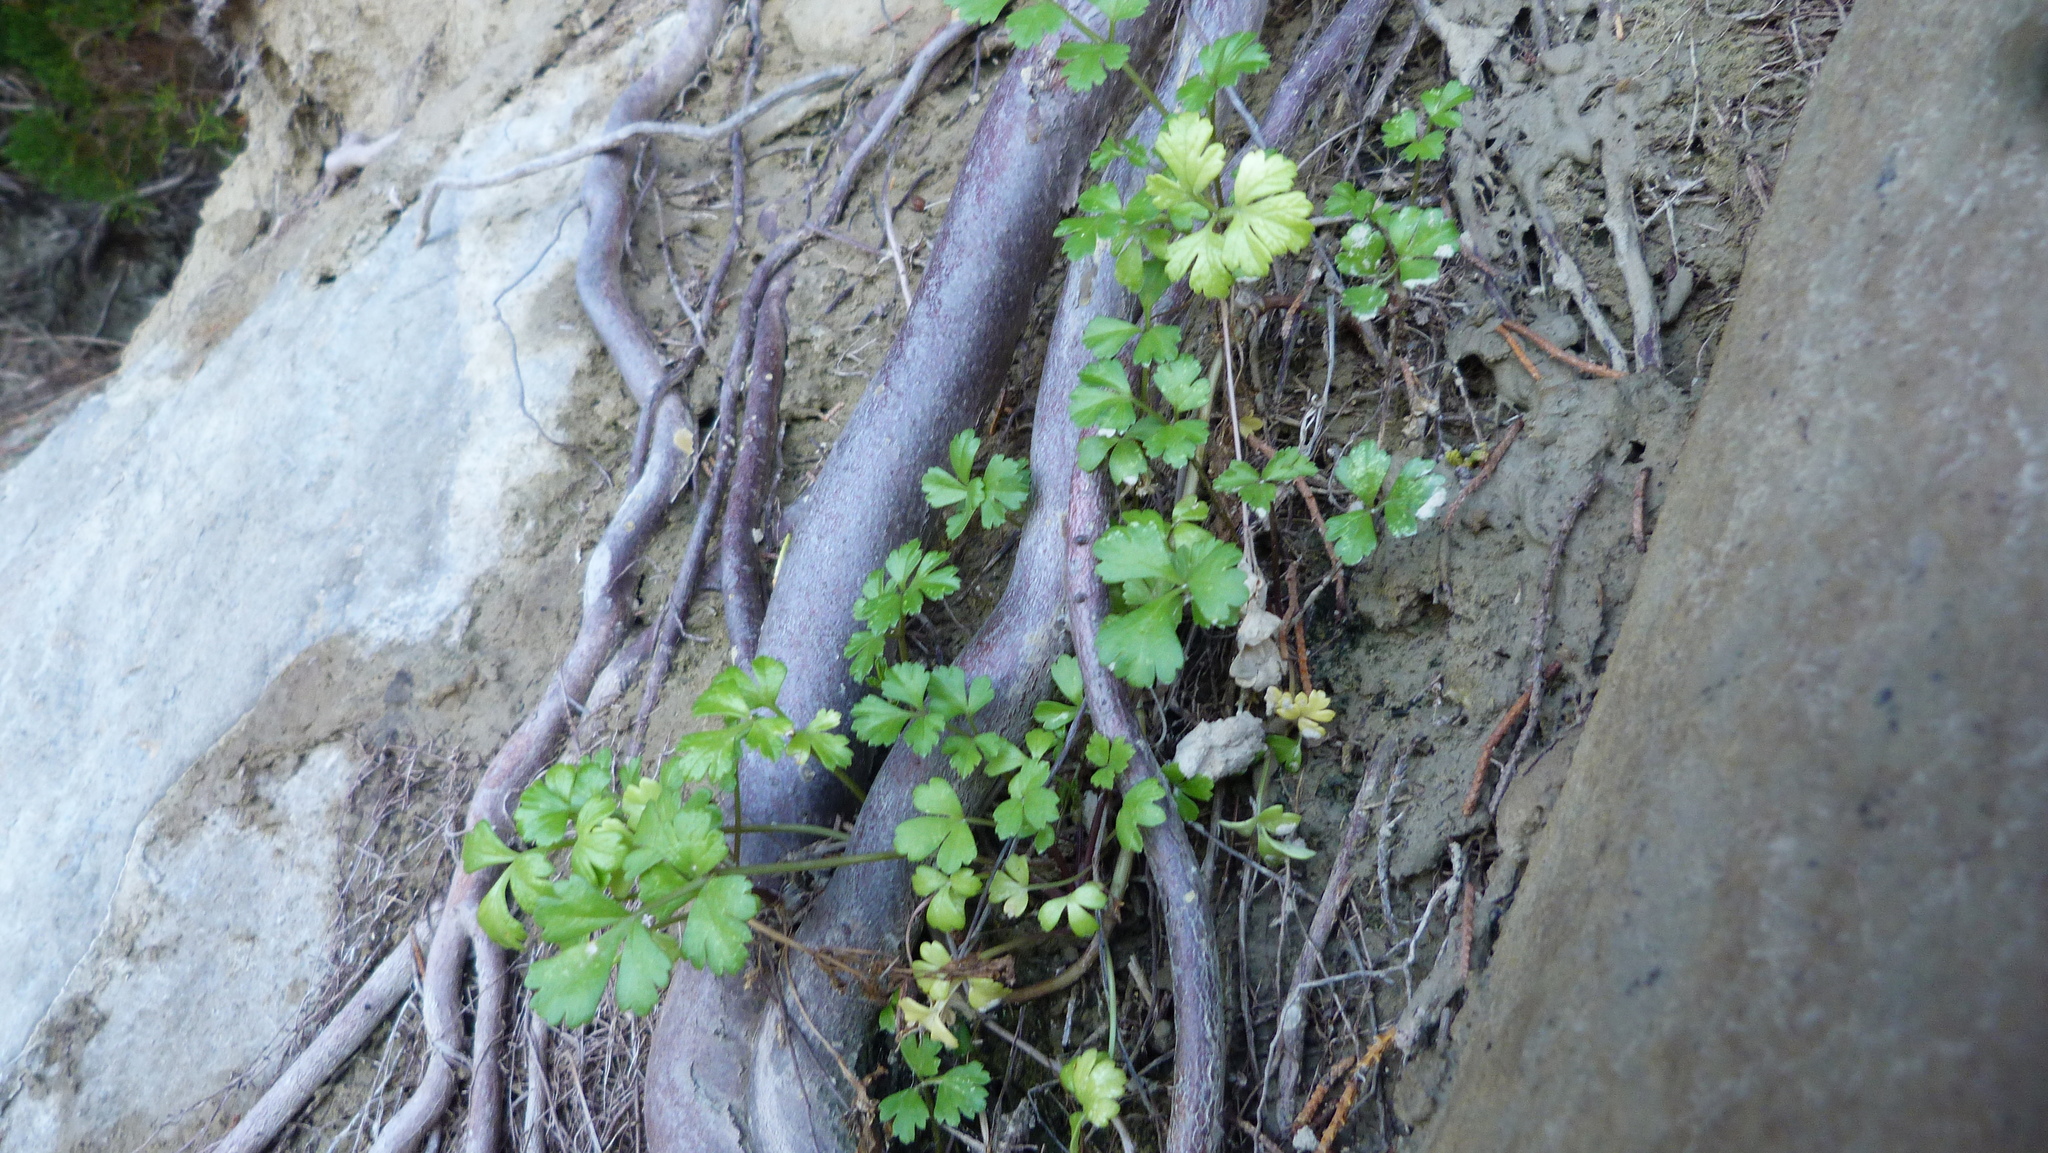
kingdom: Plantae
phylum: Tracheophyta
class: Magnoliopsida
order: Apiales
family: Apiaceae
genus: Apium
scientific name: Apium prostratum
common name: Prostrate marshwort
